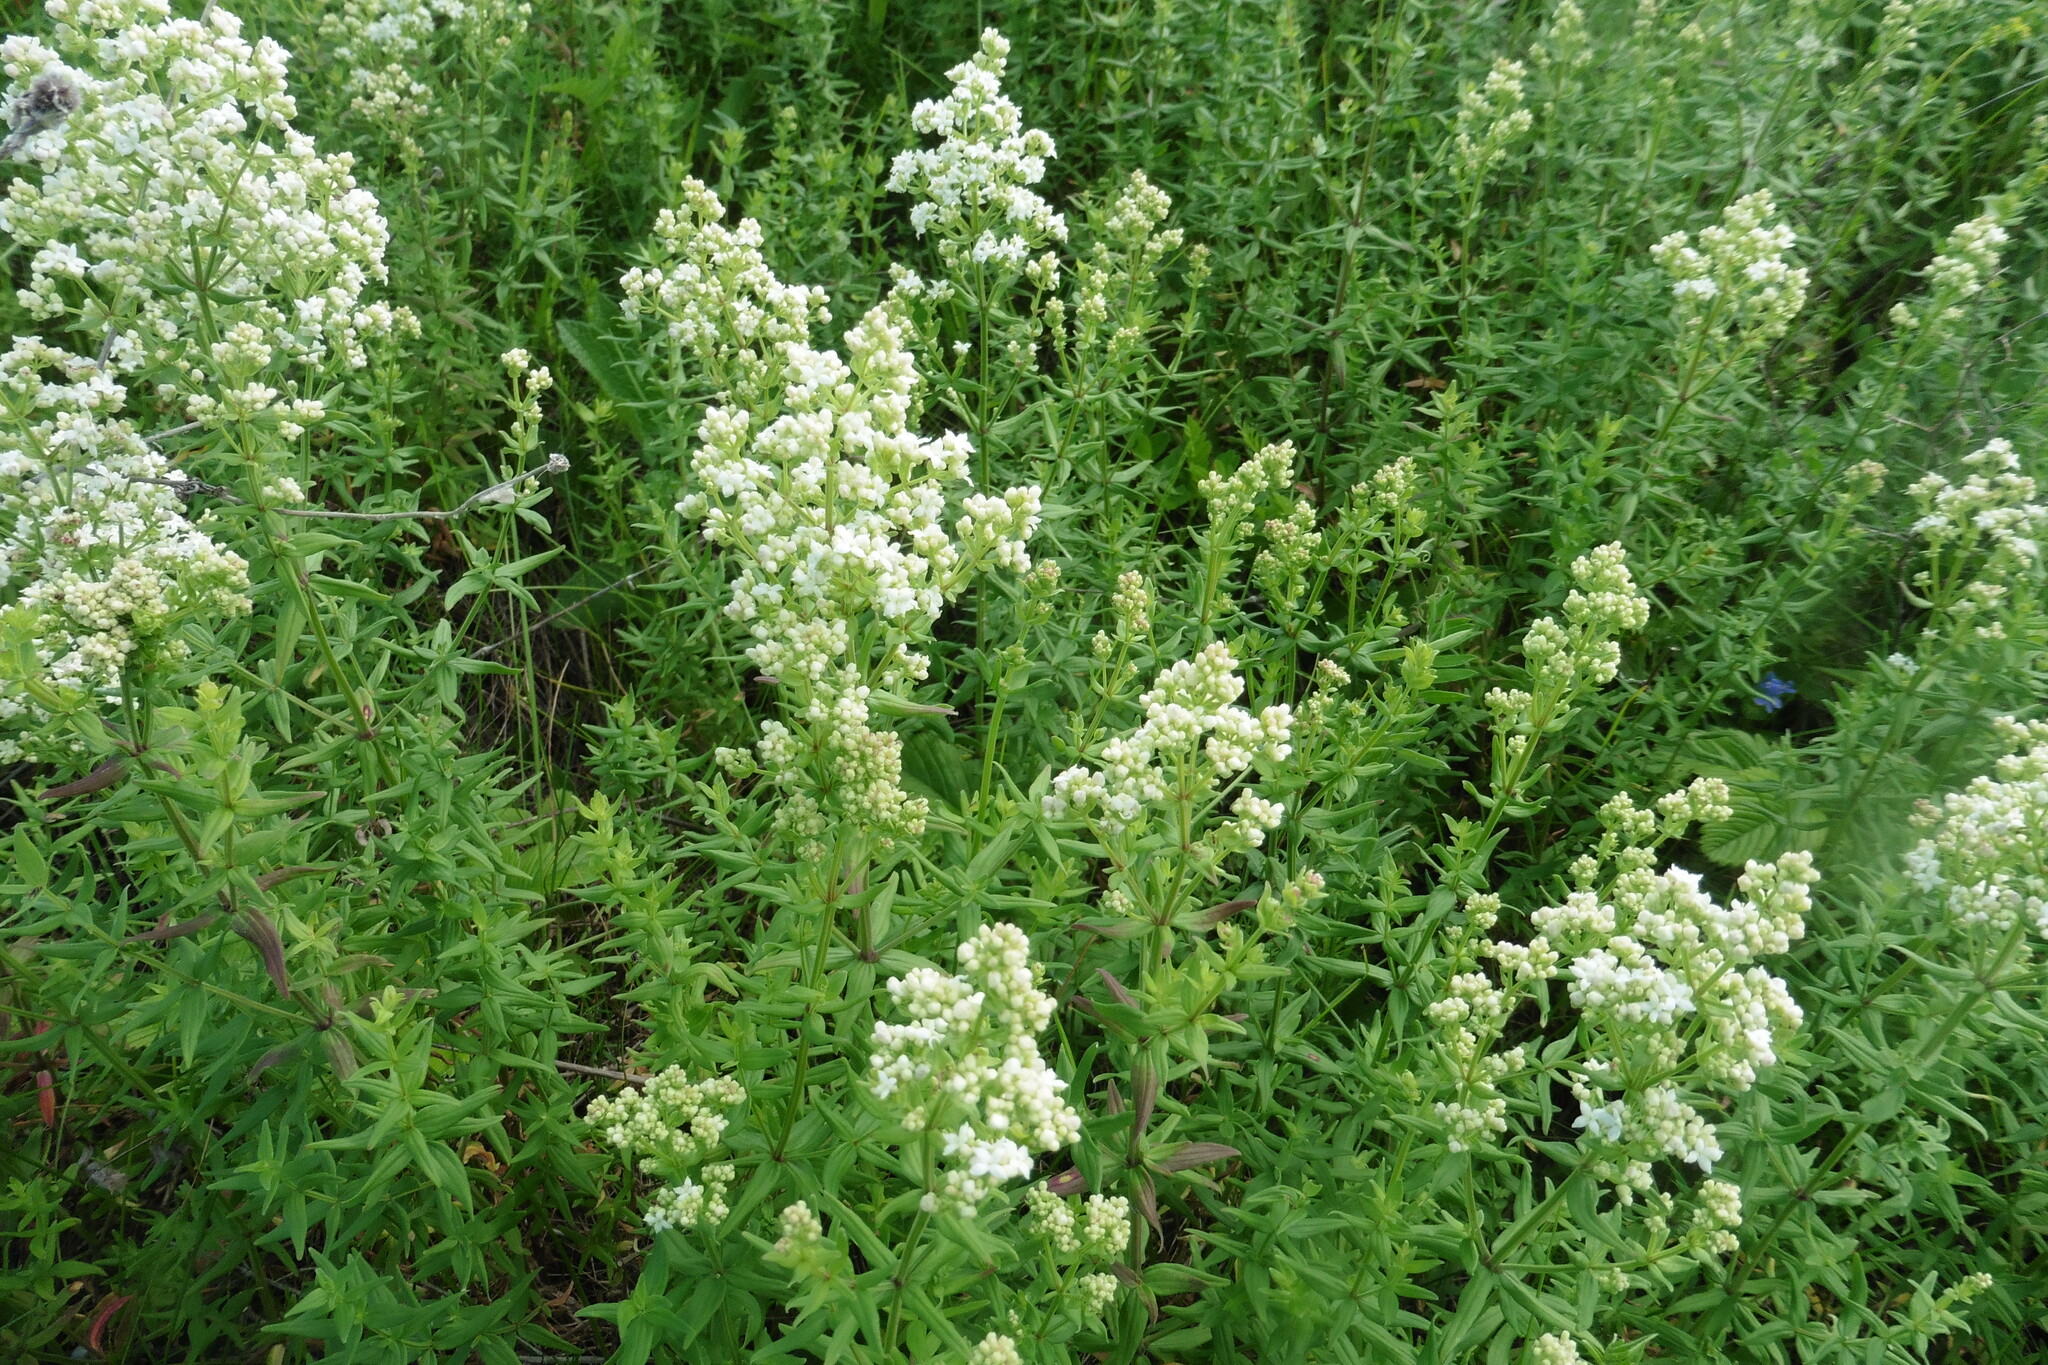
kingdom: Plantae
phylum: Tracheophyta
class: Magnoliopsida
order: Gentianales
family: Rubiaceae
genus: Galium
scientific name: Galium boreale
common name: Northern bedstraw
